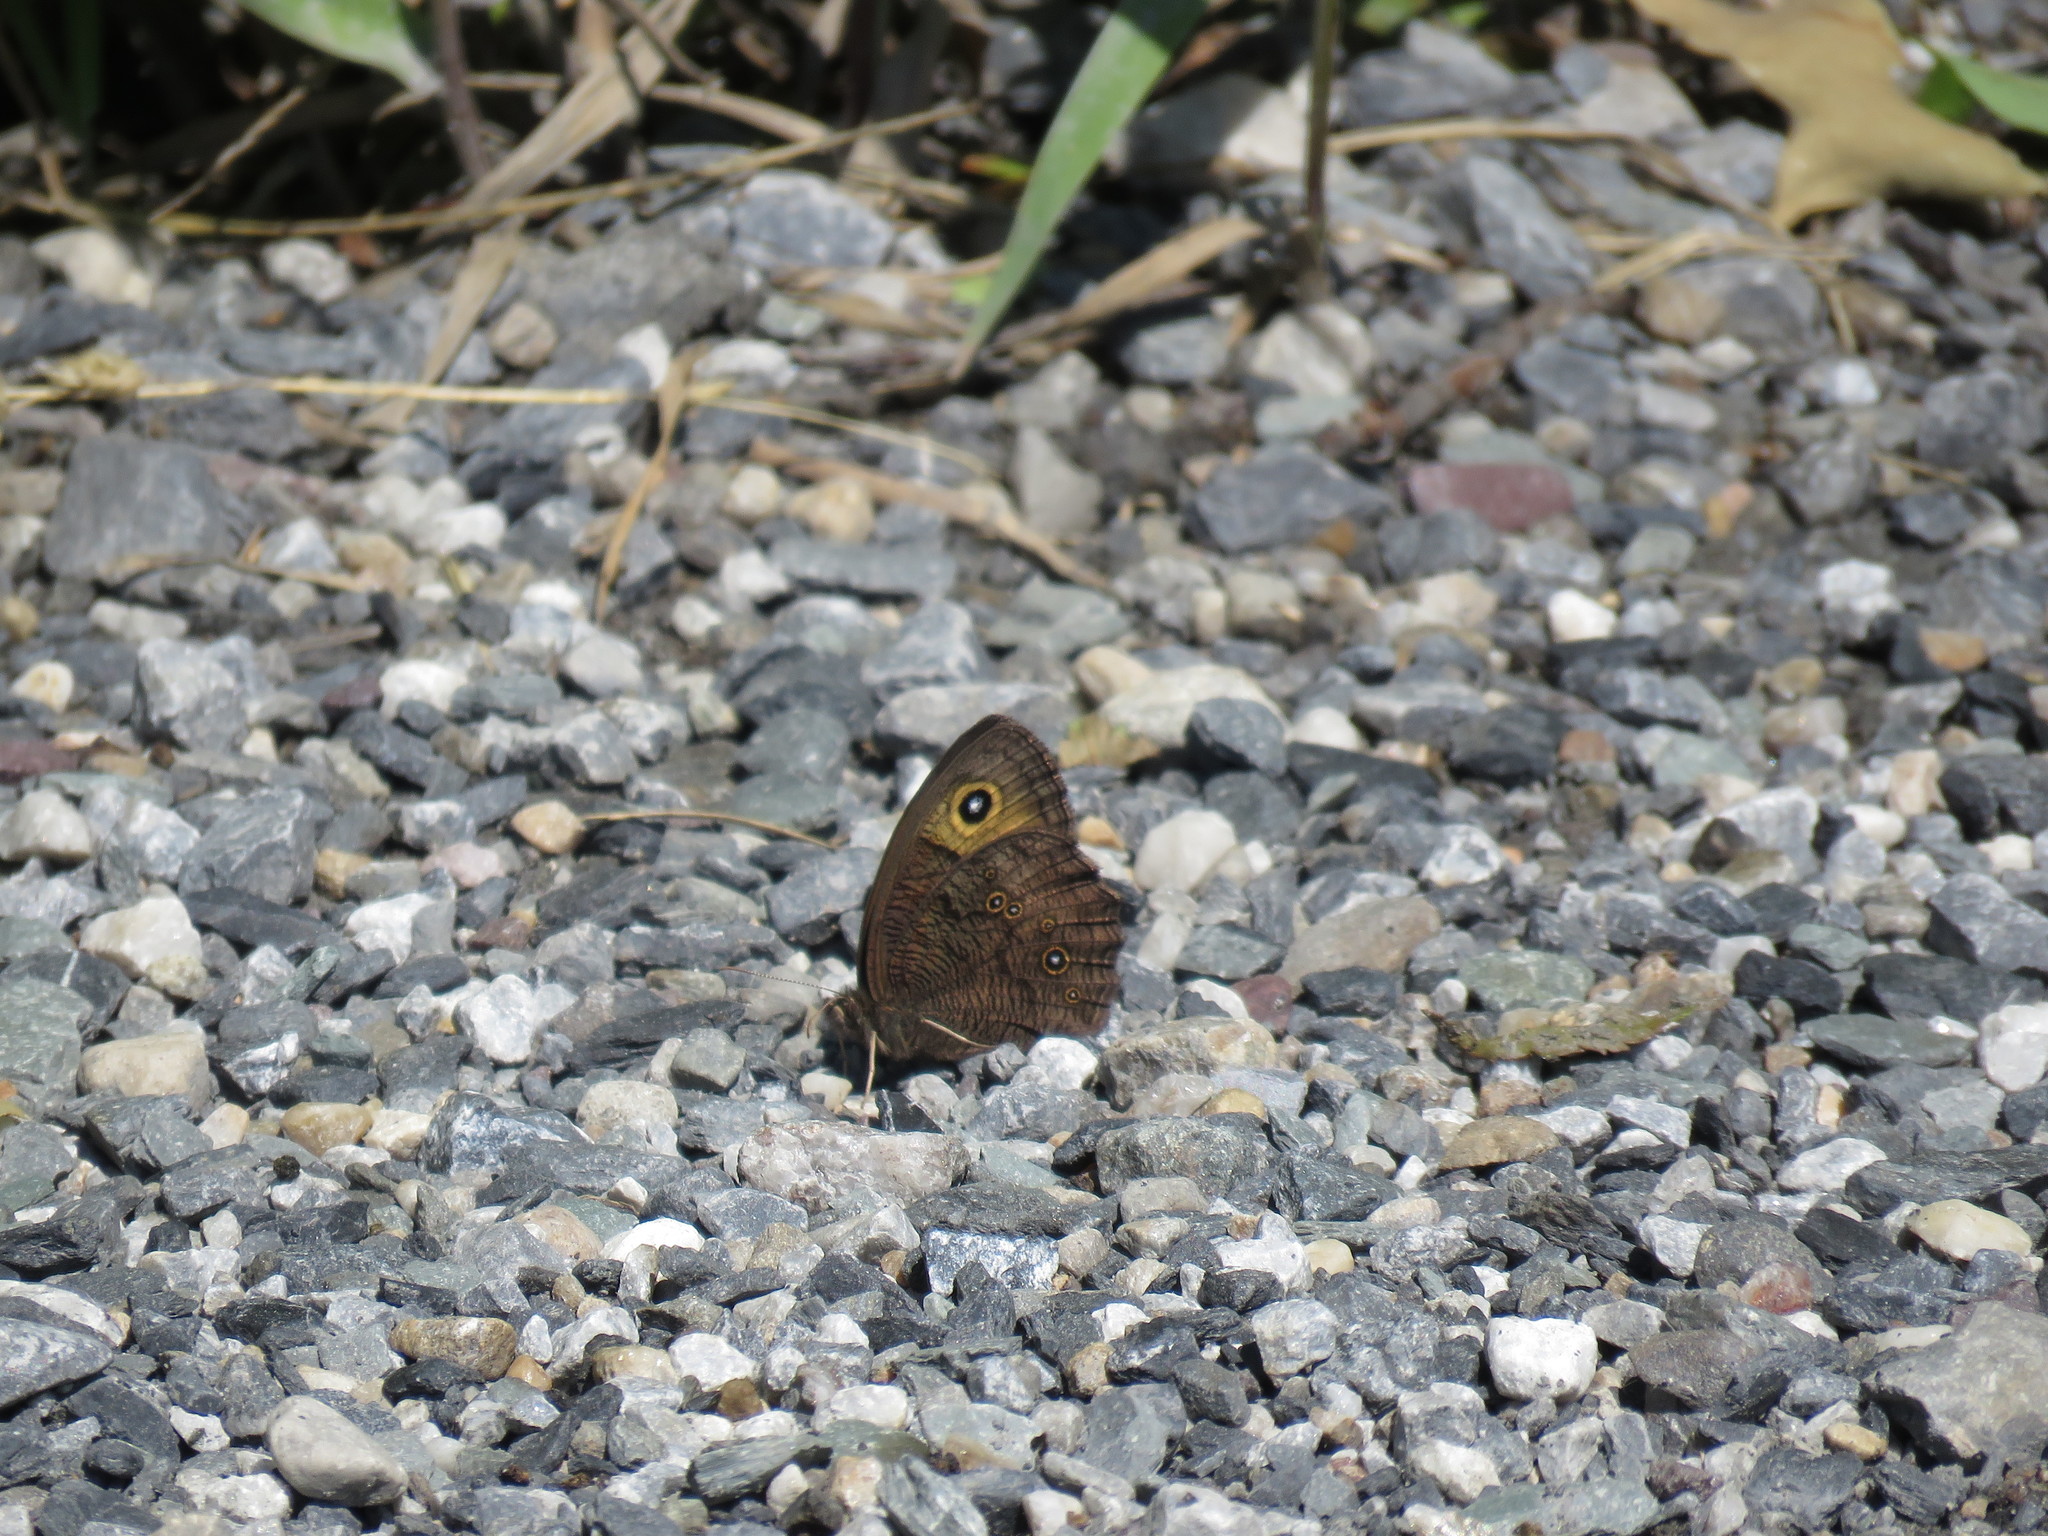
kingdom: Animalia
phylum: Arthropoda
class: Insecta
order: Lepidoptera
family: Nymphalidae
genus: Cercyonis
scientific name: Cercyonis pegala
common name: Common wood-nymph
